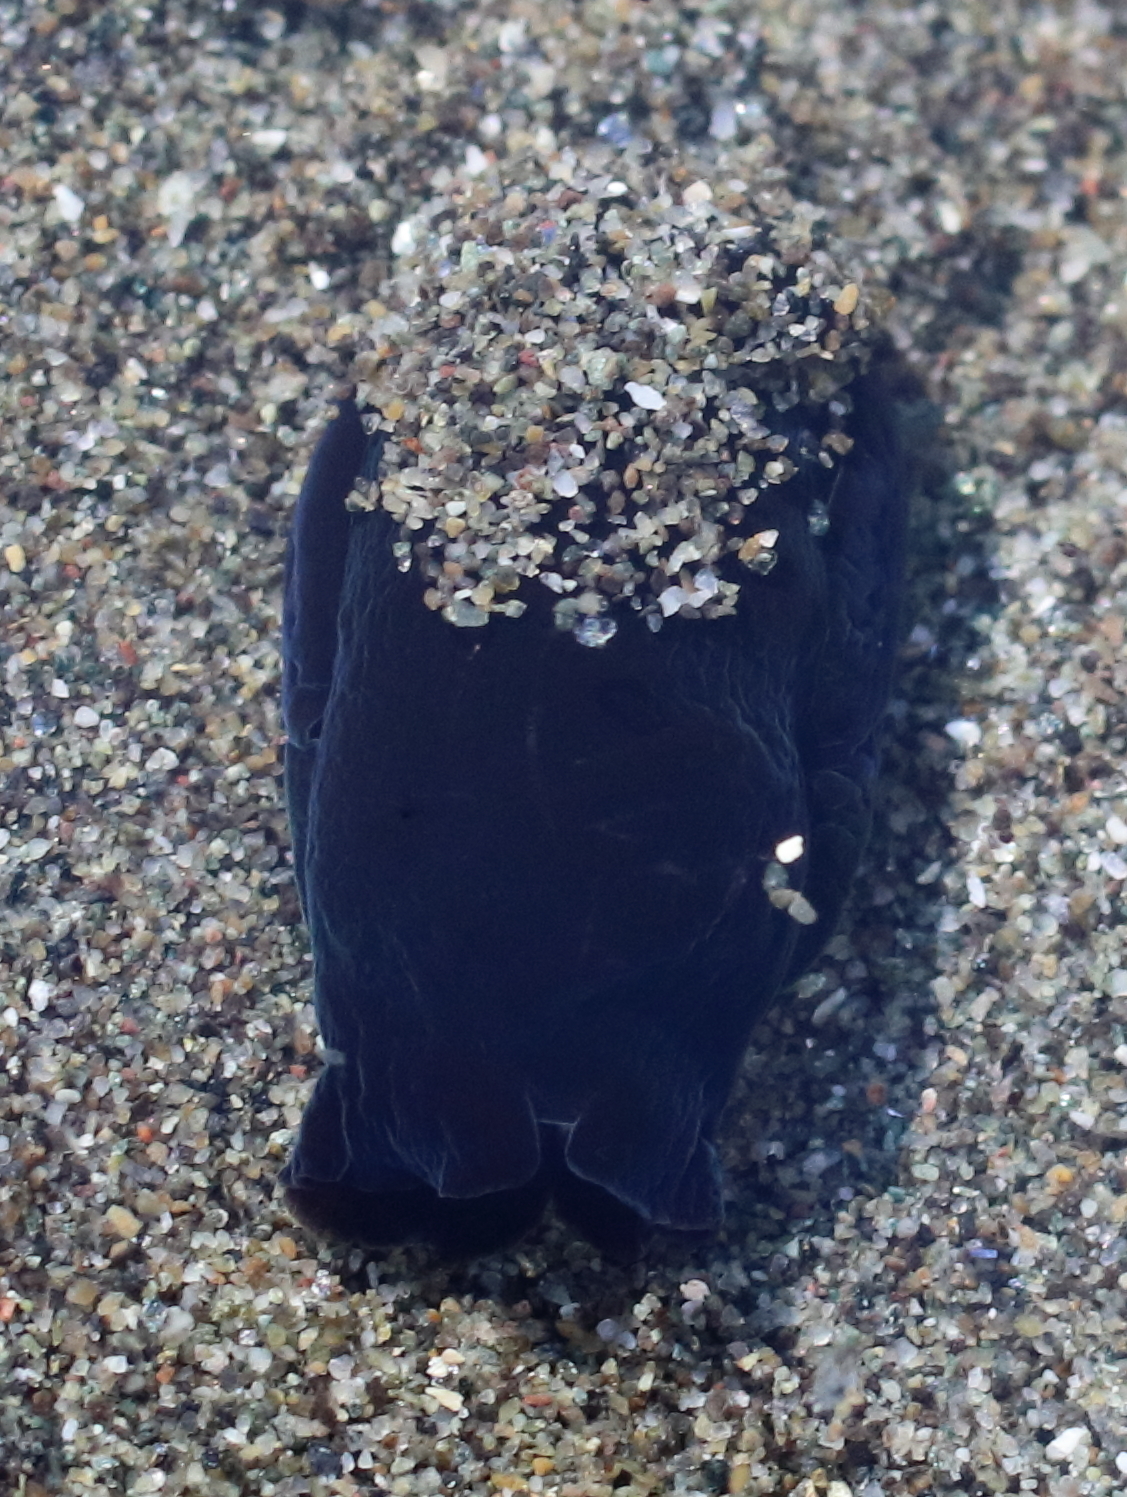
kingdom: Animalia
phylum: Mollusca
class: Gastropoda
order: Cephalaspidea
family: Aglajidae
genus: Melanochlamys
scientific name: Melanochlamys diomedea
